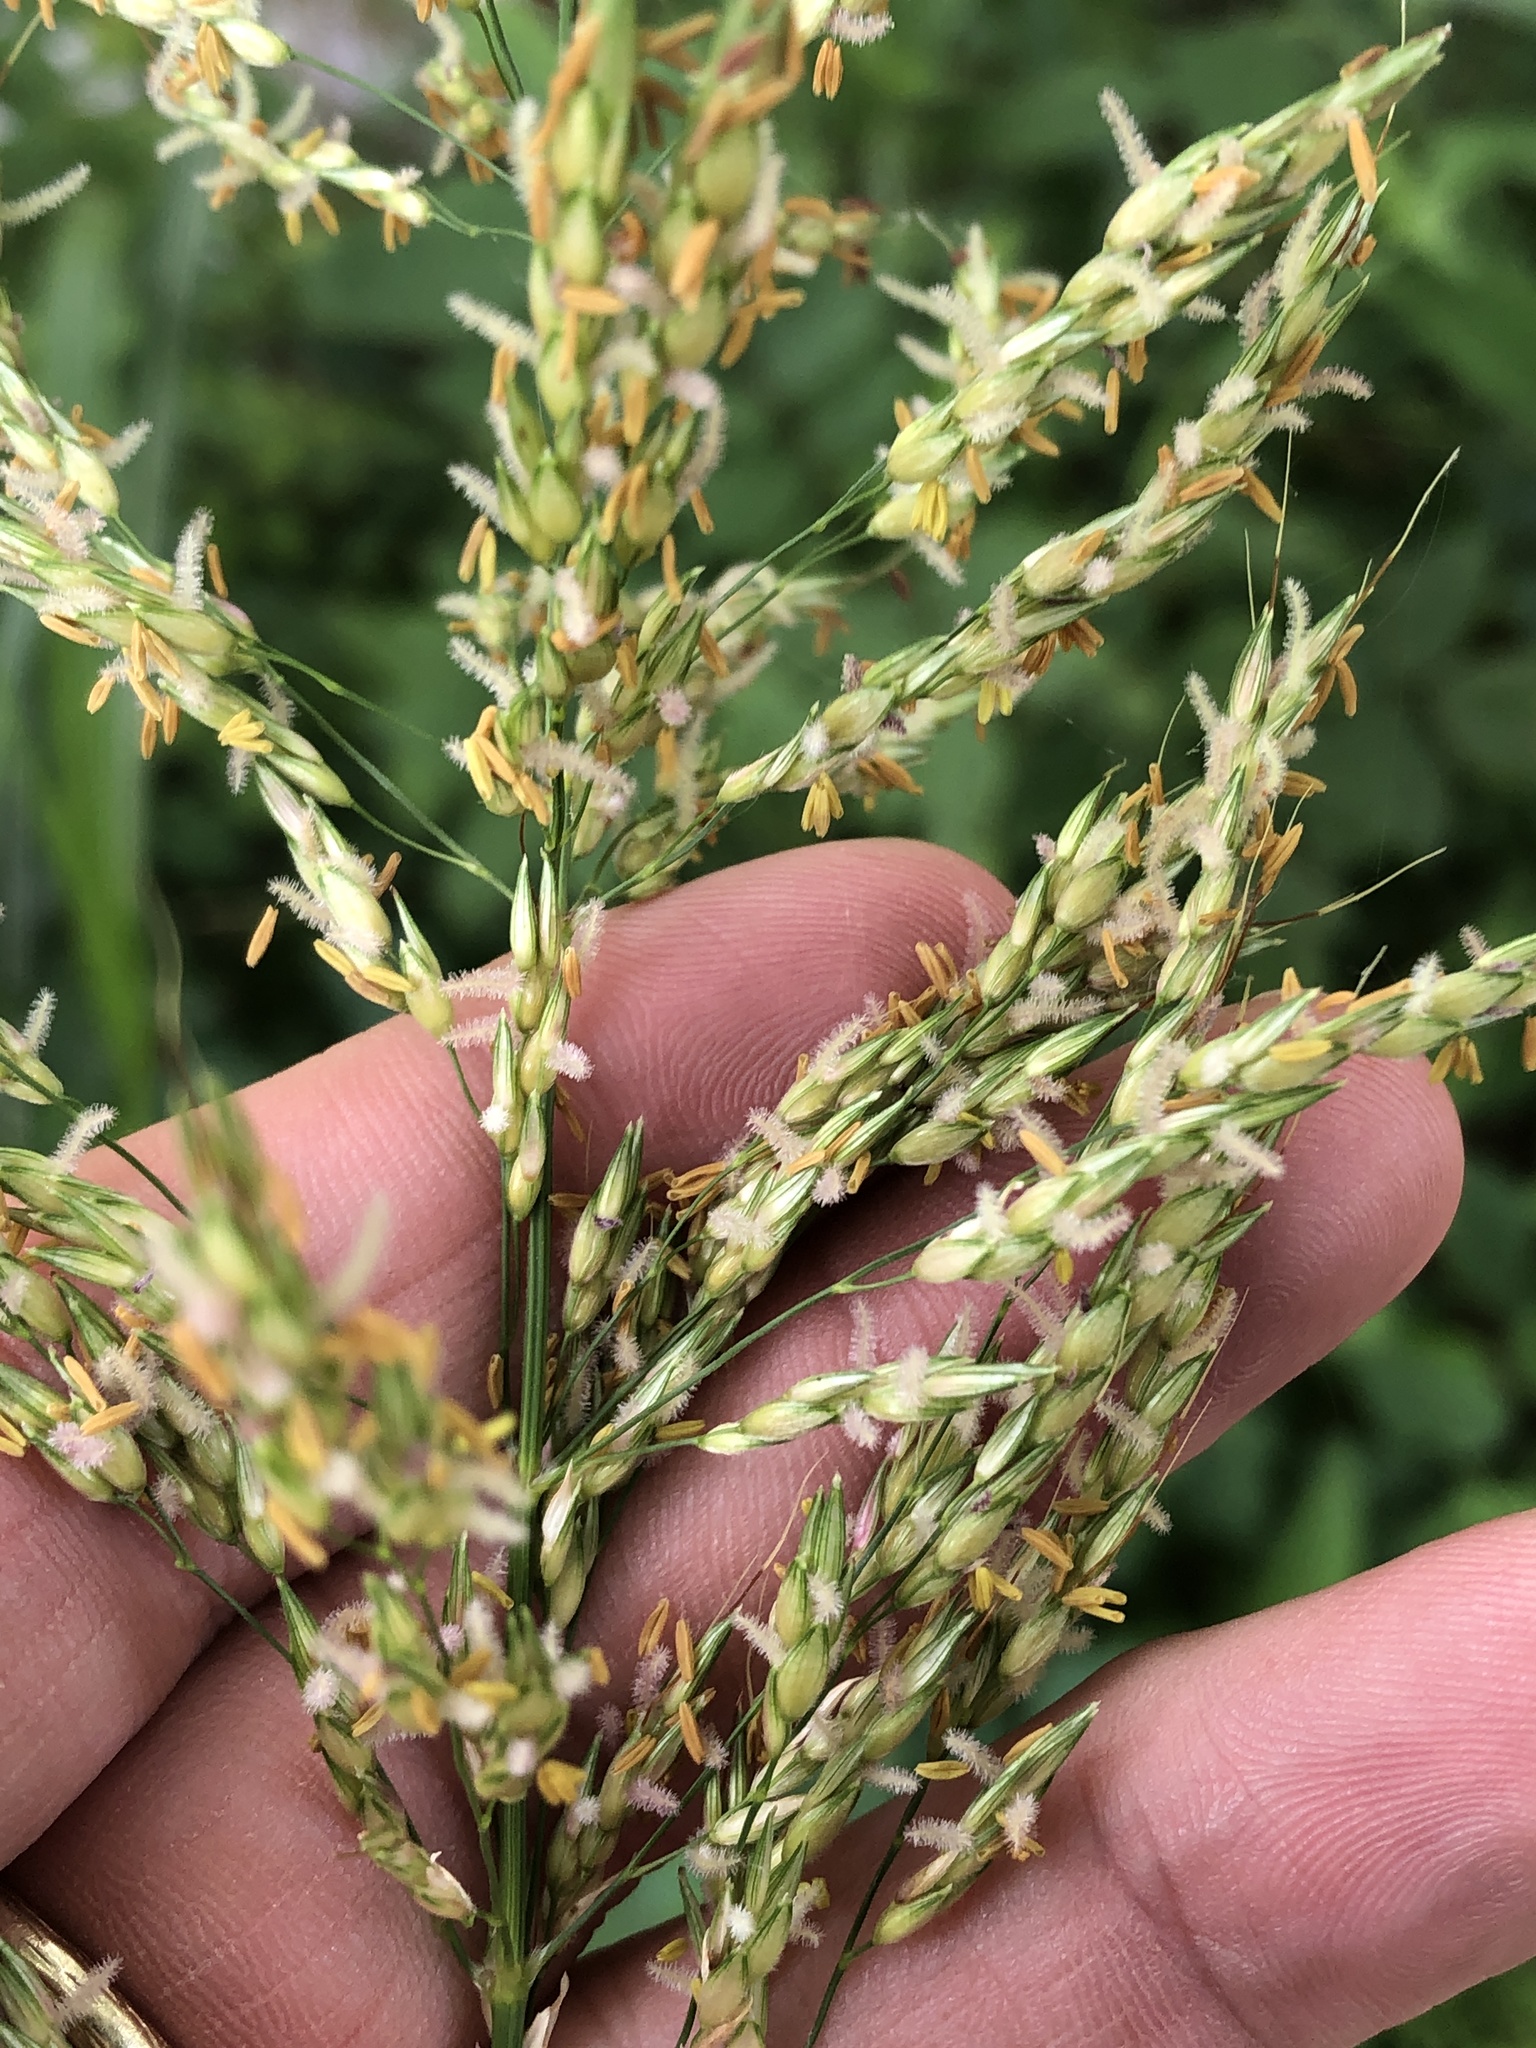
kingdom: Plantae
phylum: Tracheophyta
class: Liliopsida
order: Poales
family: Poaceae
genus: Sorghum
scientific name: Sorghum halepense
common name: Johnson-grass
